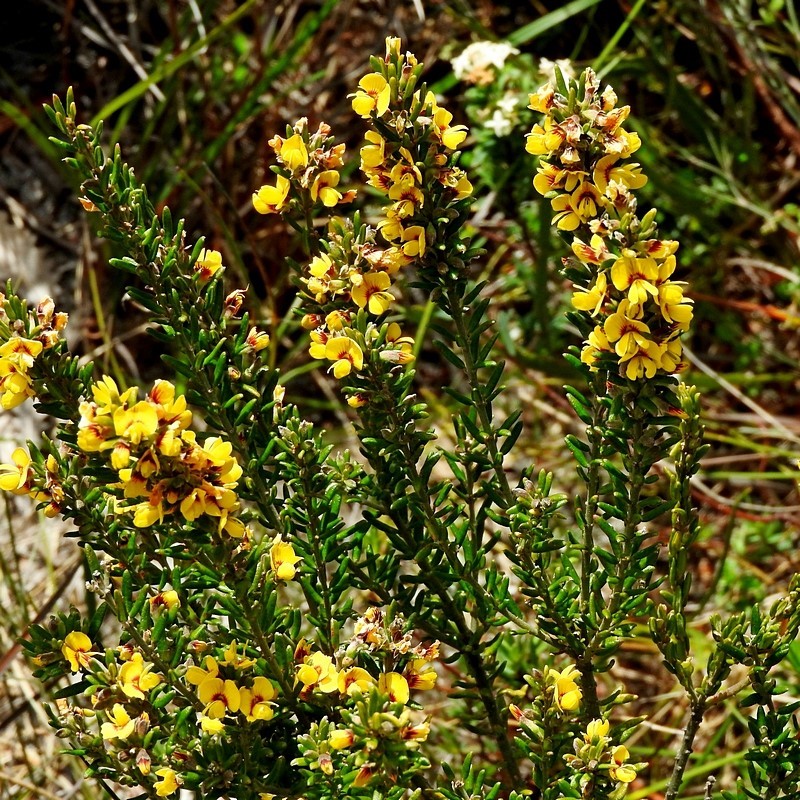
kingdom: Plantae
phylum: Tracheophyta
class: Magnoliopsida
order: Fabales
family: Fabaceae
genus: Aotus
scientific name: Aotus ericoides
